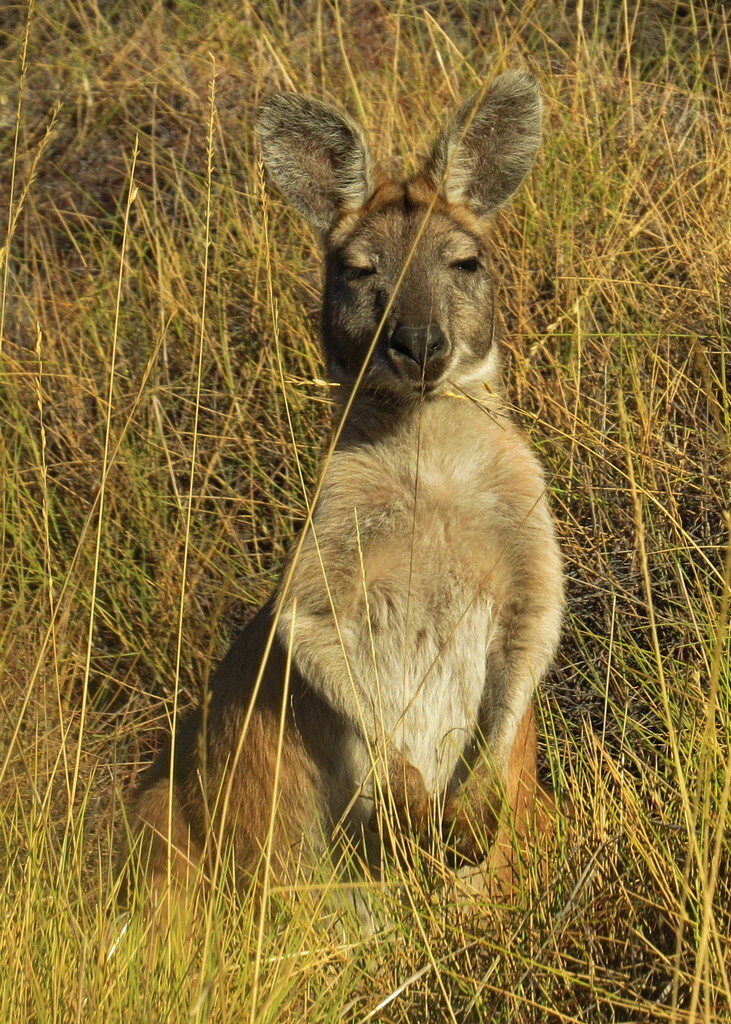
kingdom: Animalia
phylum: Chordata
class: Mammalia
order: Diprotodontia
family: Macropodidae
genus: Macropus
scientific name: Macropus robustus
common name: Eastern wallaroo
